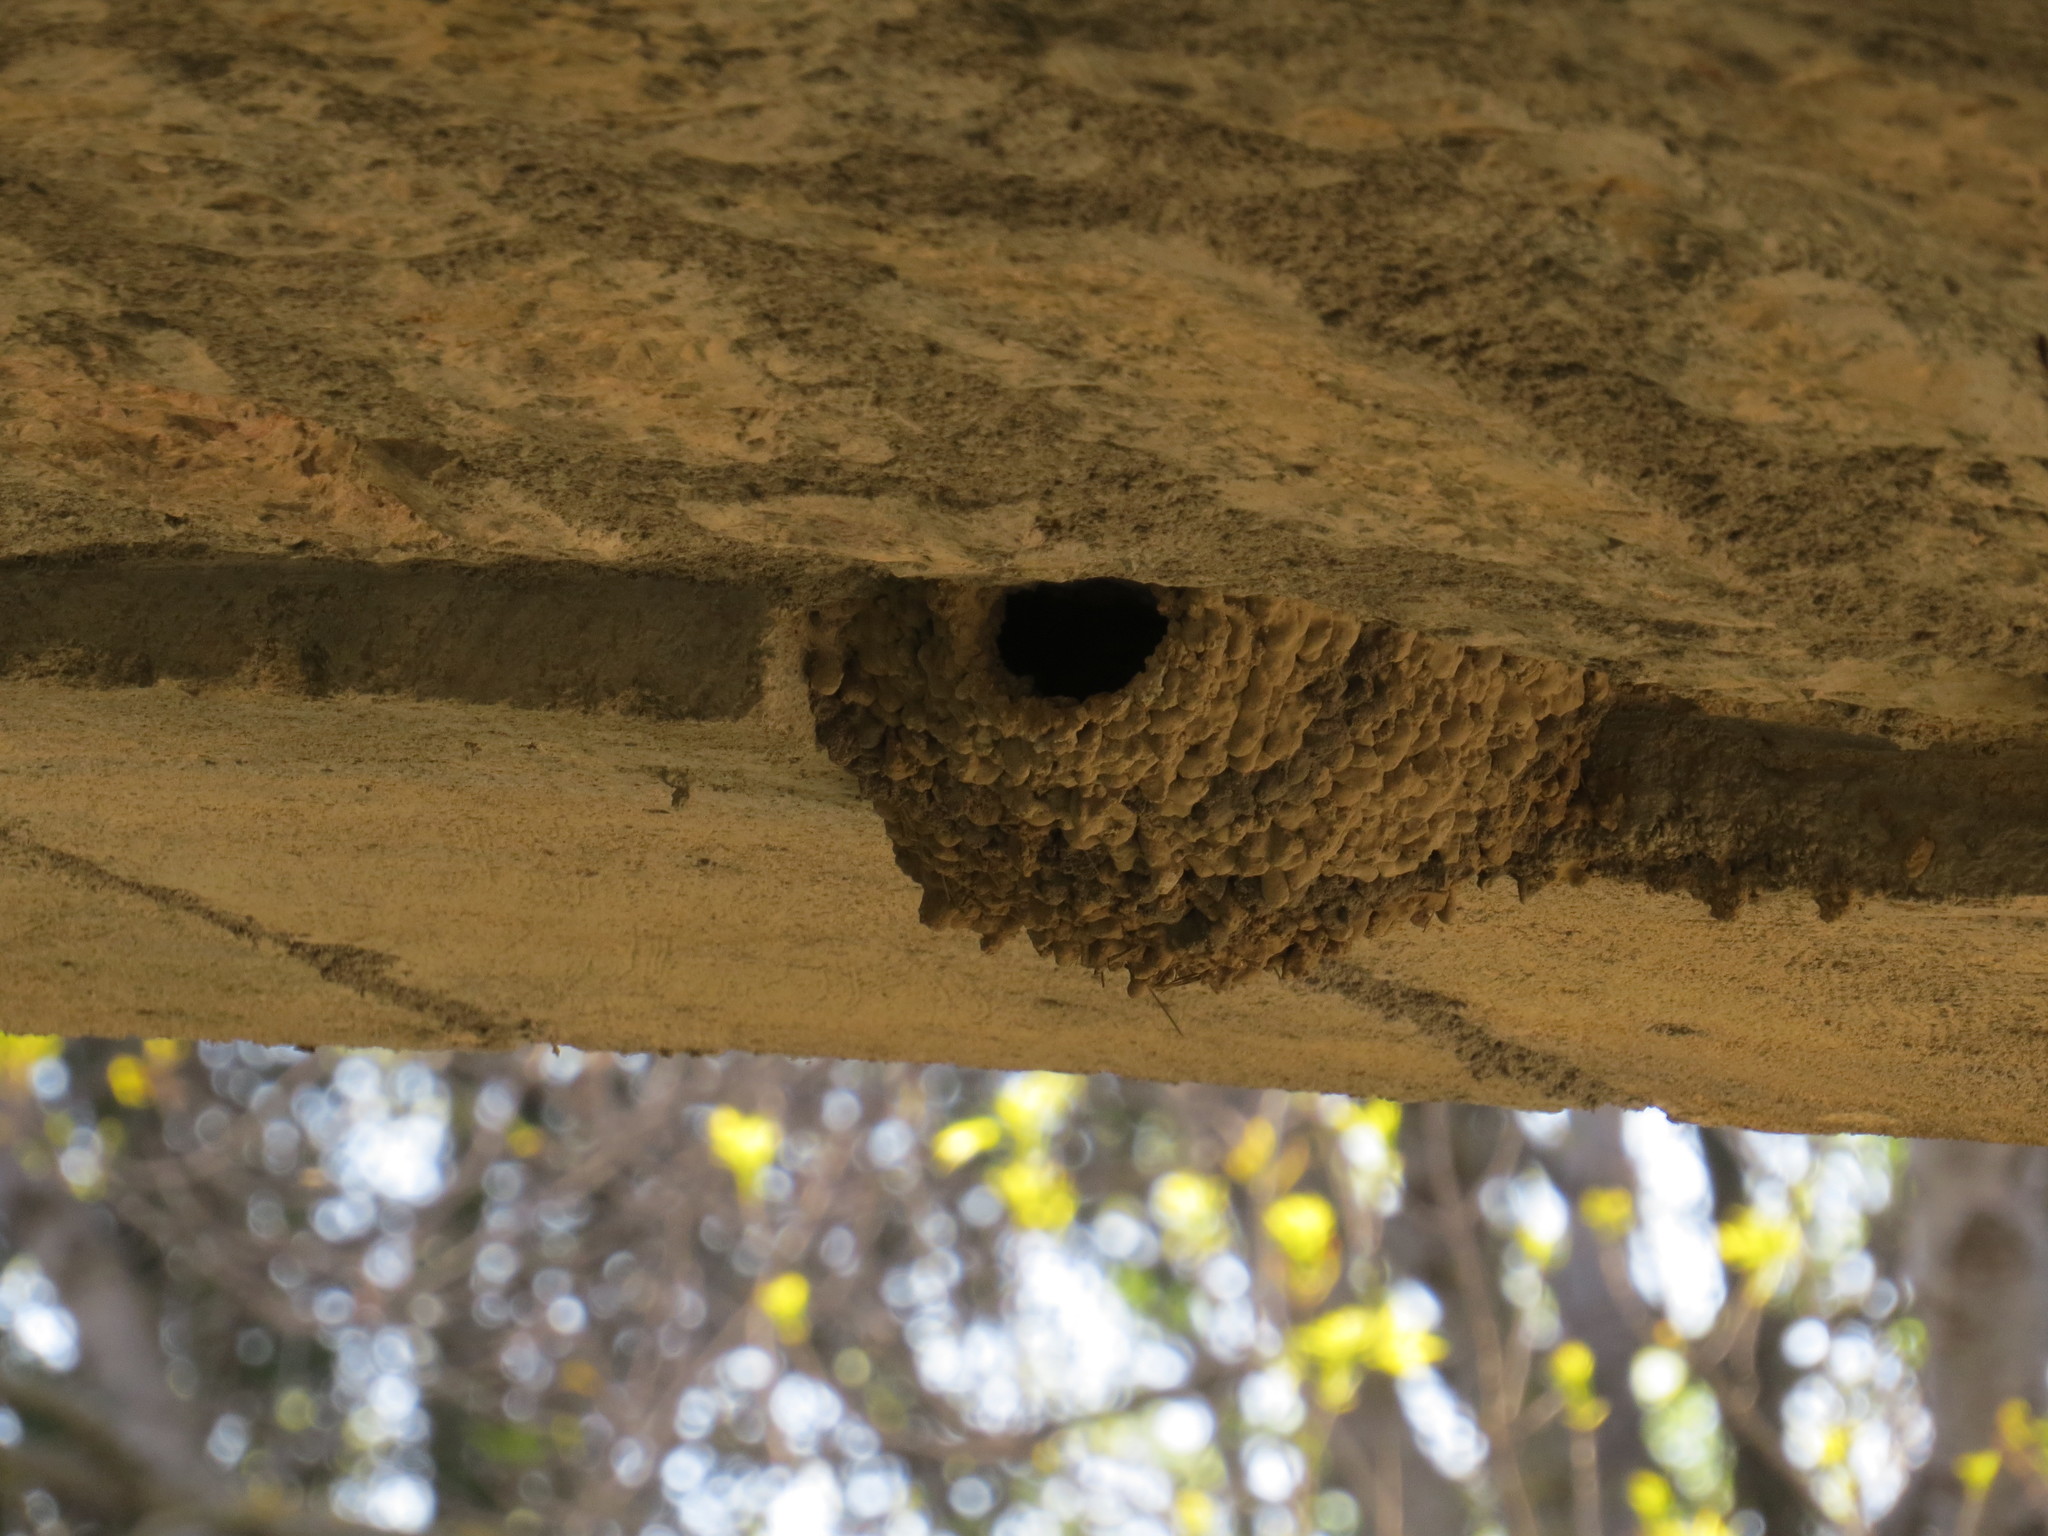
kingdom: Animalia
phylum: Chordata
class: Aves
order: Passeriformes
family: Hirundinidae
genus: Cecropis
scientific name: Cecropis daurica
